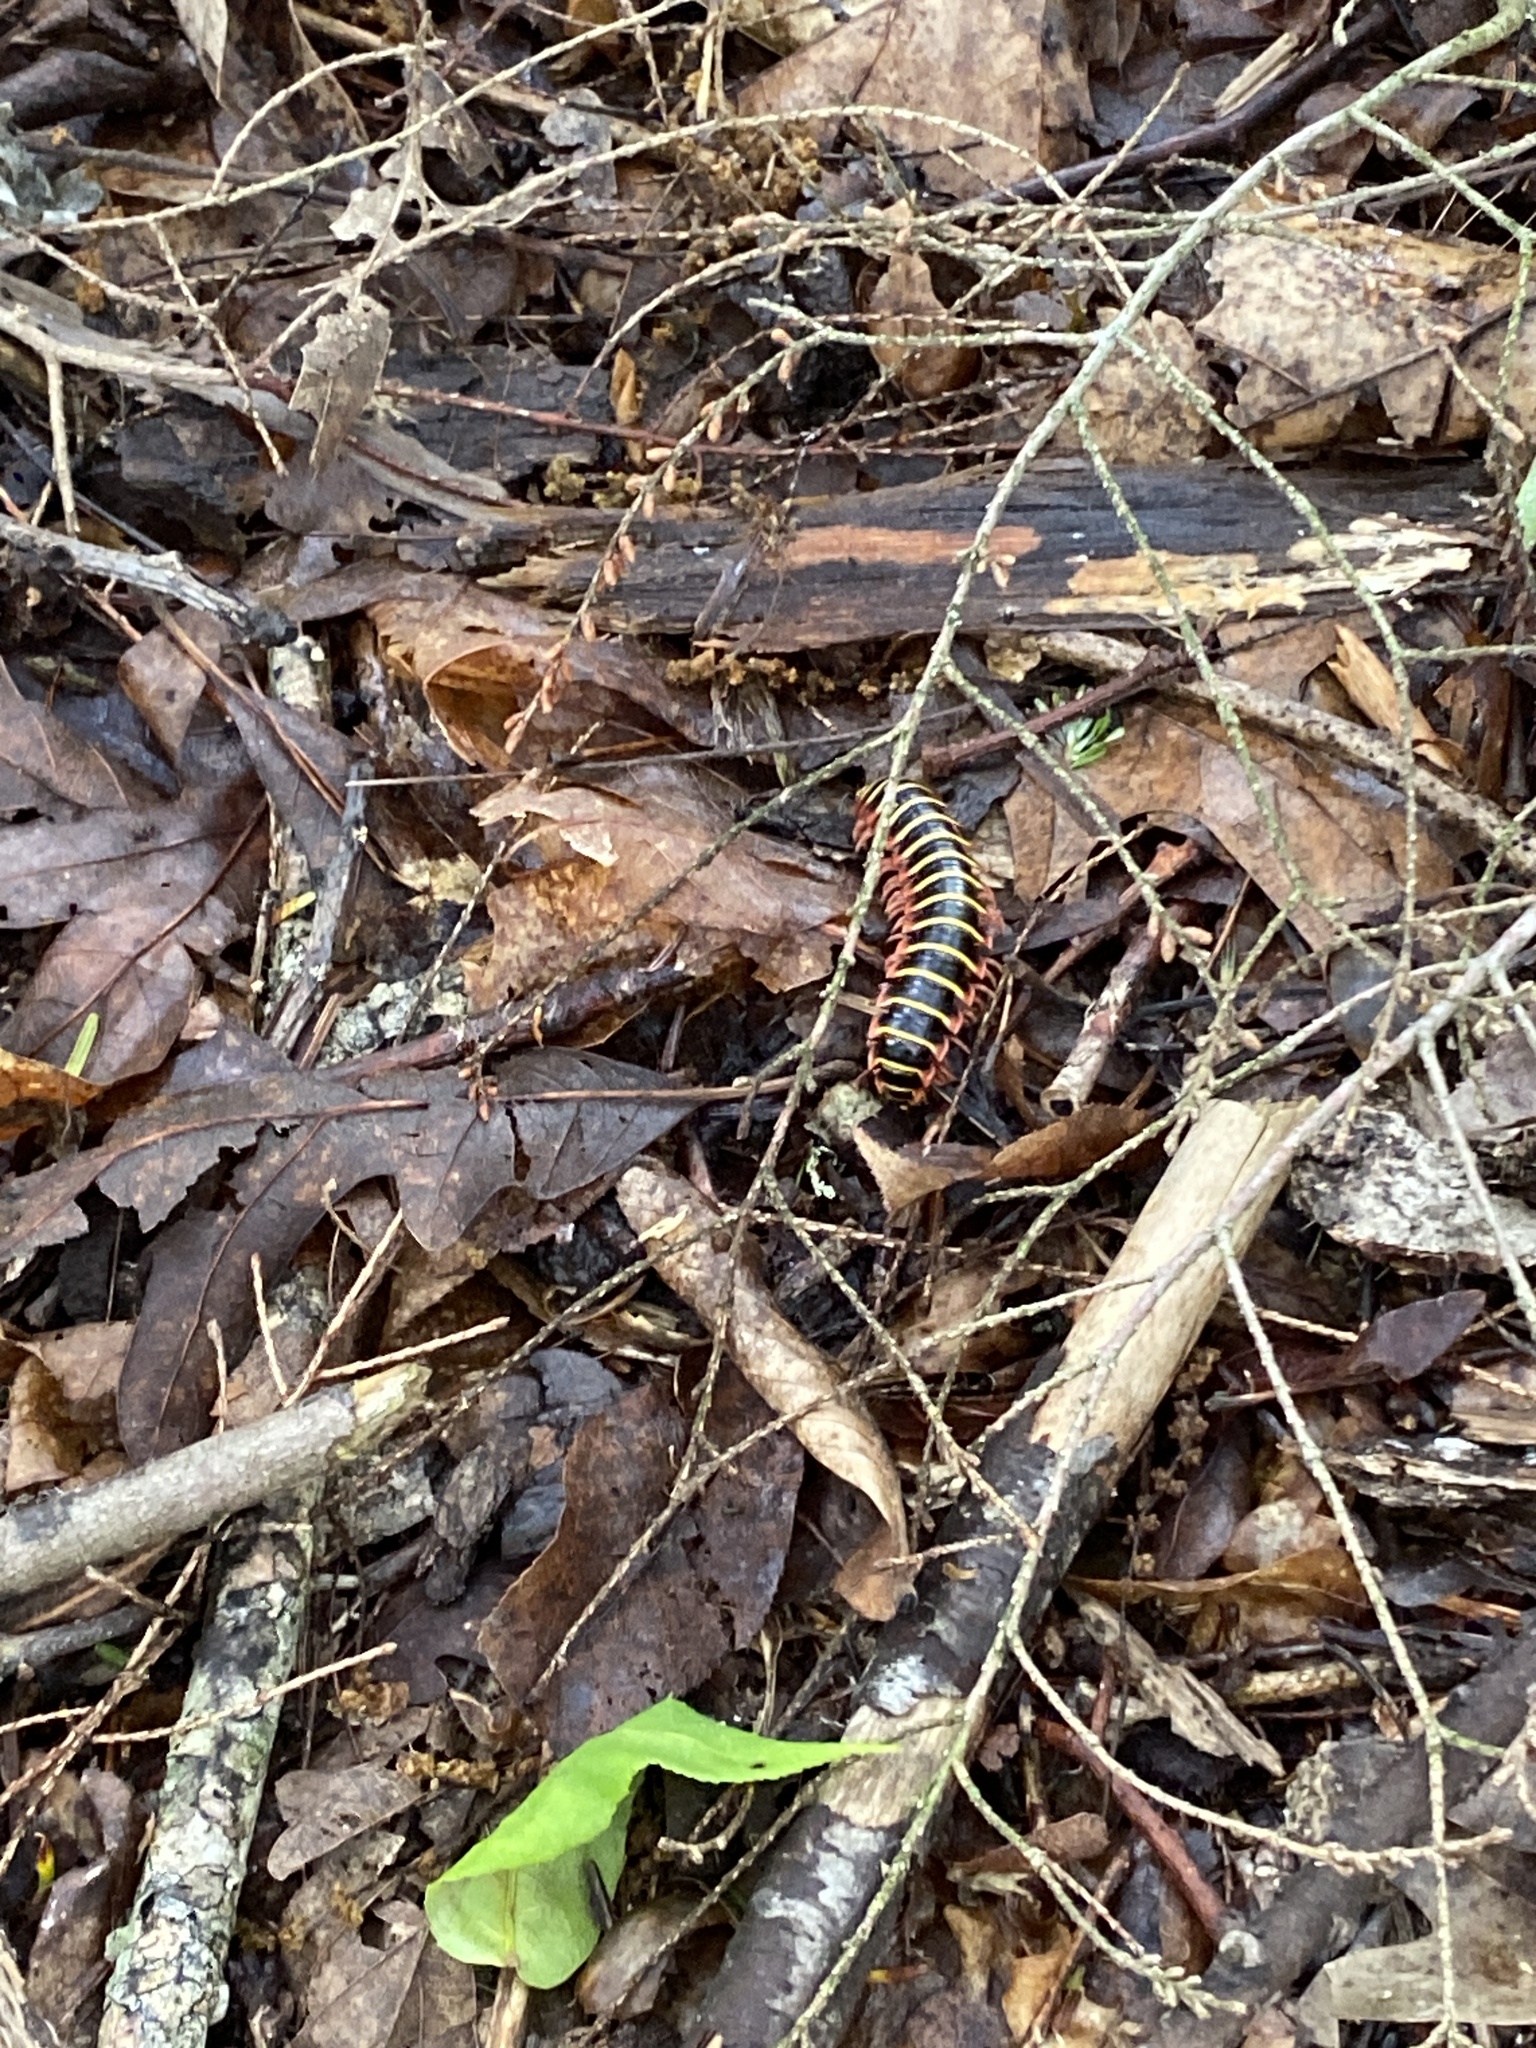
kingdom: Animalia
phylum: Arthropoda
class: Diplopoda
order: Polydesmida
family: Xystodesmidae
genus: Apheloria
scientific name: Apheloria virginiensis
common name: Black-and-gold flat millipede
